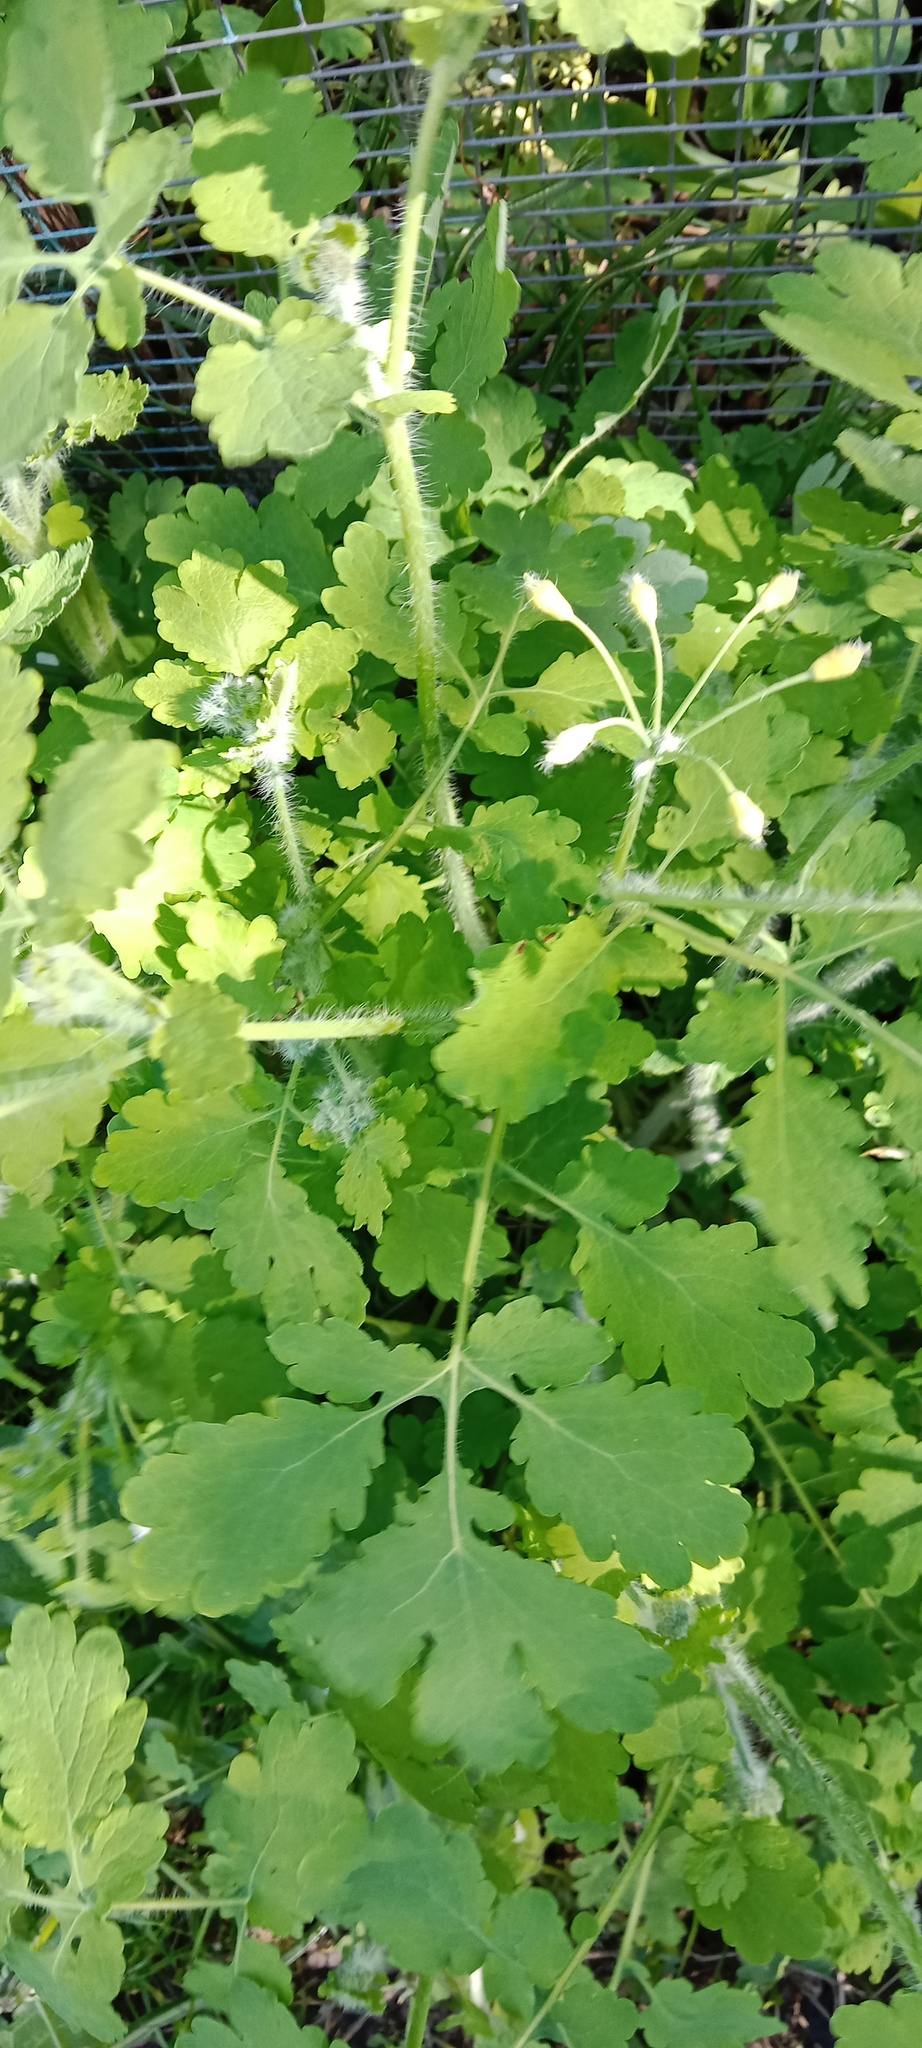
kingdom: Plantae
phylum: Tracheophyta
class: Magnoliopsida
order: Ranunculales
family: Papaveraceae
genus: Chelidonium
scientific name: Chelidonium majus
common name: Greater celandine
